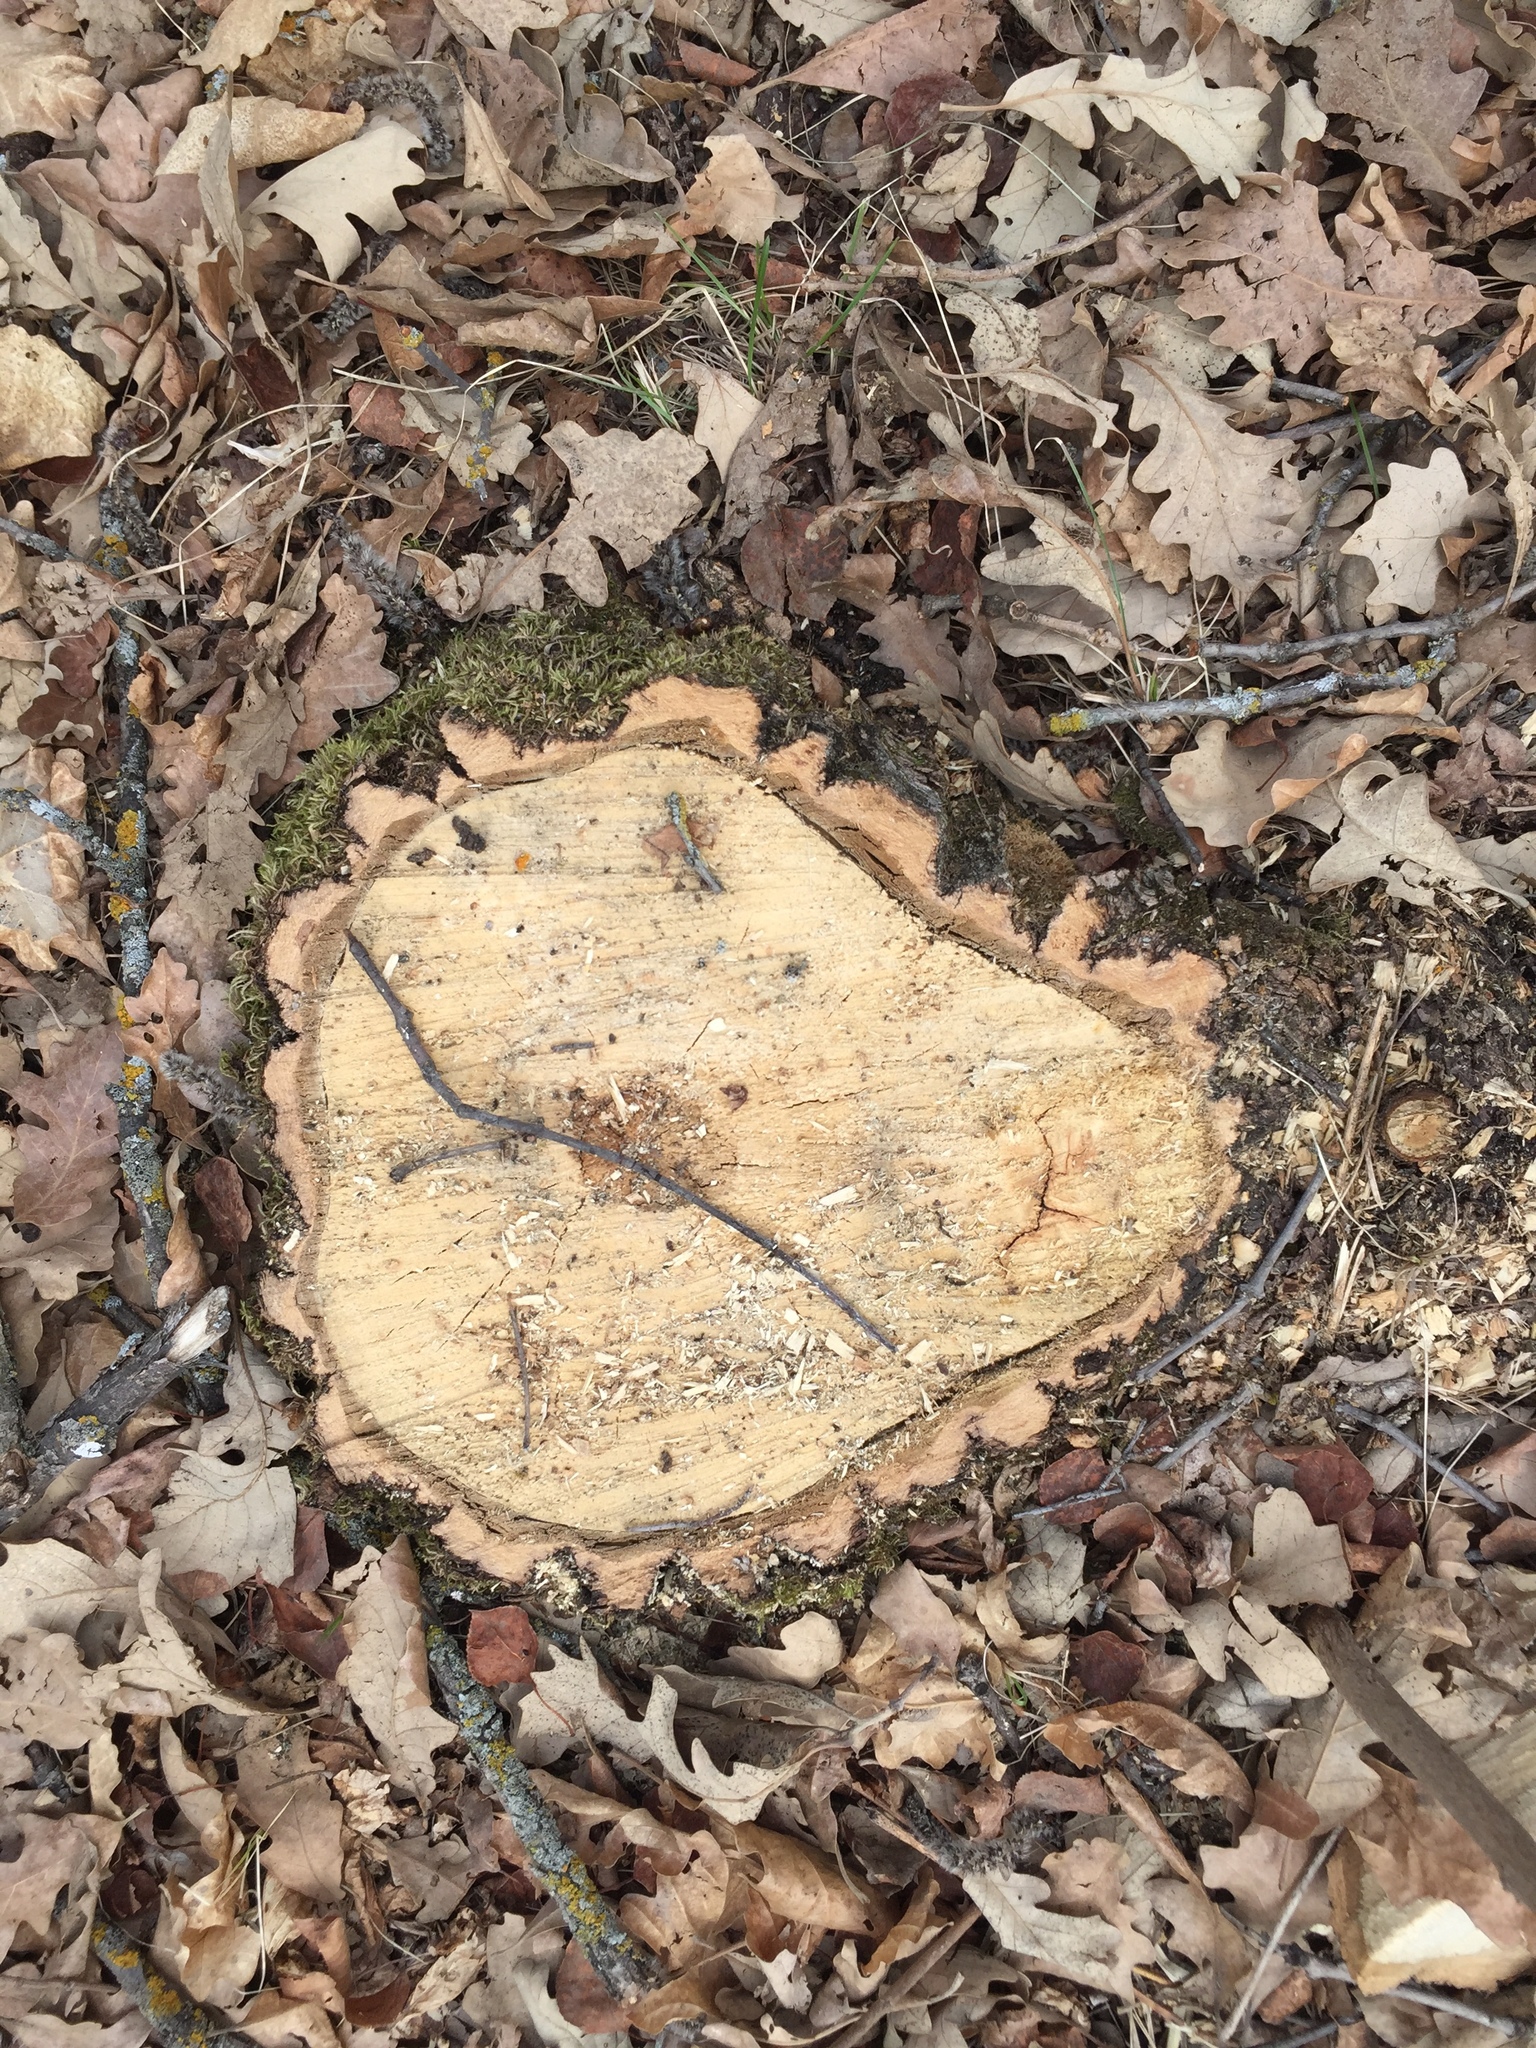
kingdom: Plantae
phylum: Tracheophyta
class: Magnoliopsida
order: Fagales
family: Fagaceae
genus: Quercus
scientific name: Quercus macrocarpa
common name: Bur oak
